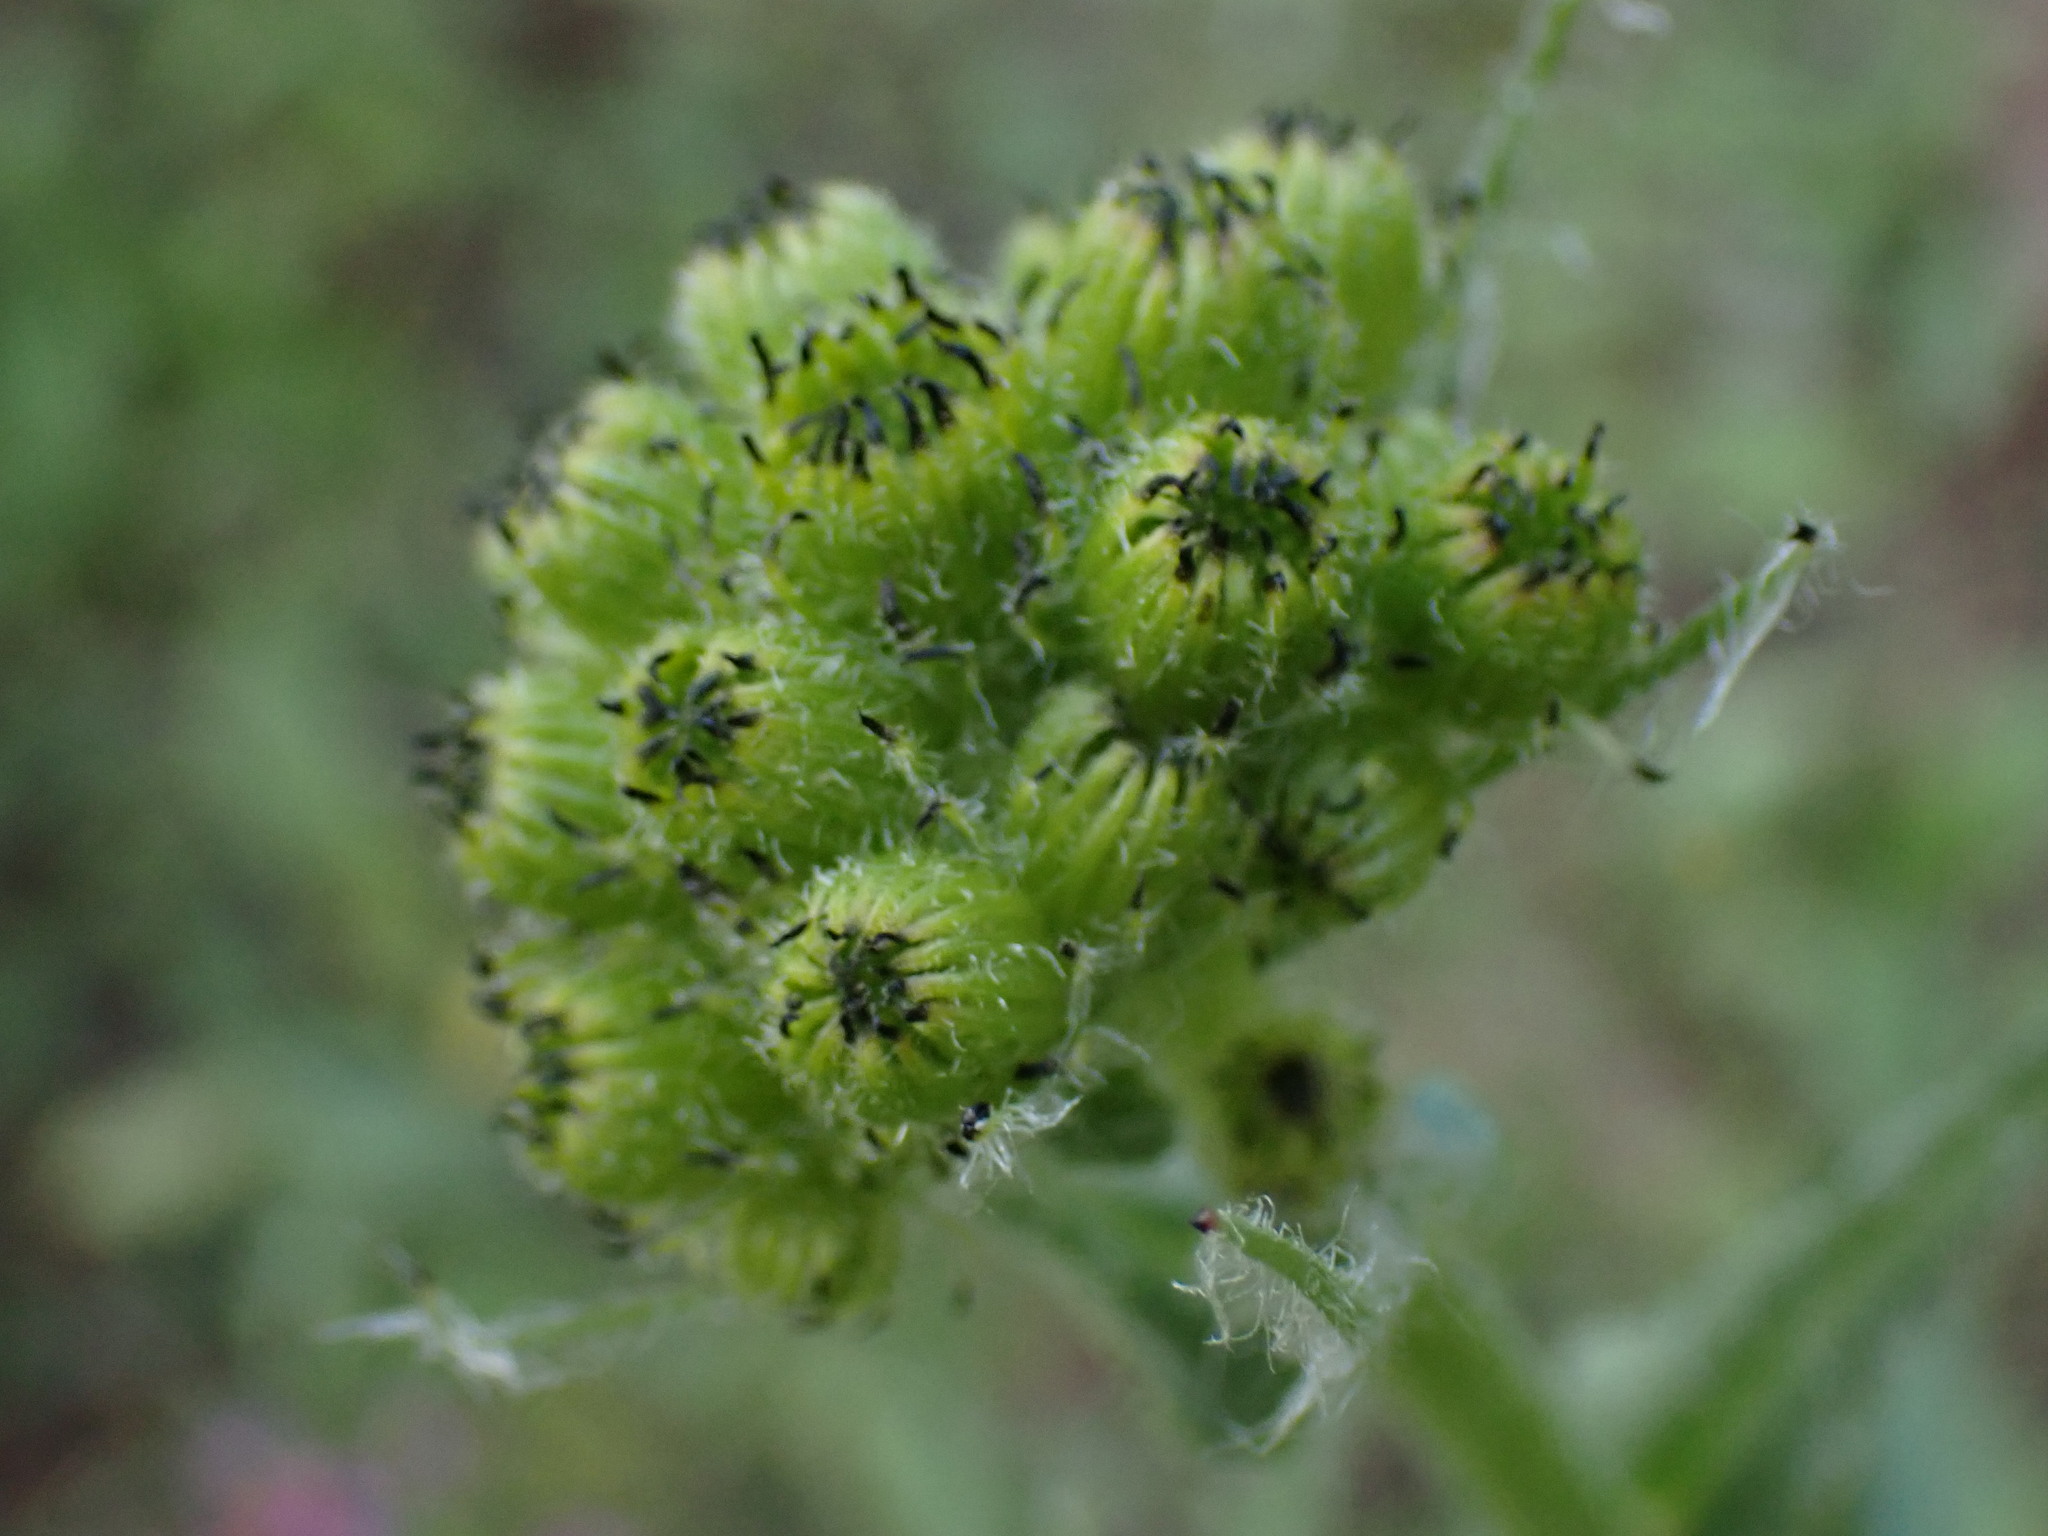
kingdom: Plantae
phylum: Tracheophyta
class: Magnoliopsida
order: Asterales
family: Asteraceae
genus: Senecio
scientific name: Senecio integerrimus
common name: Gaugeplant
